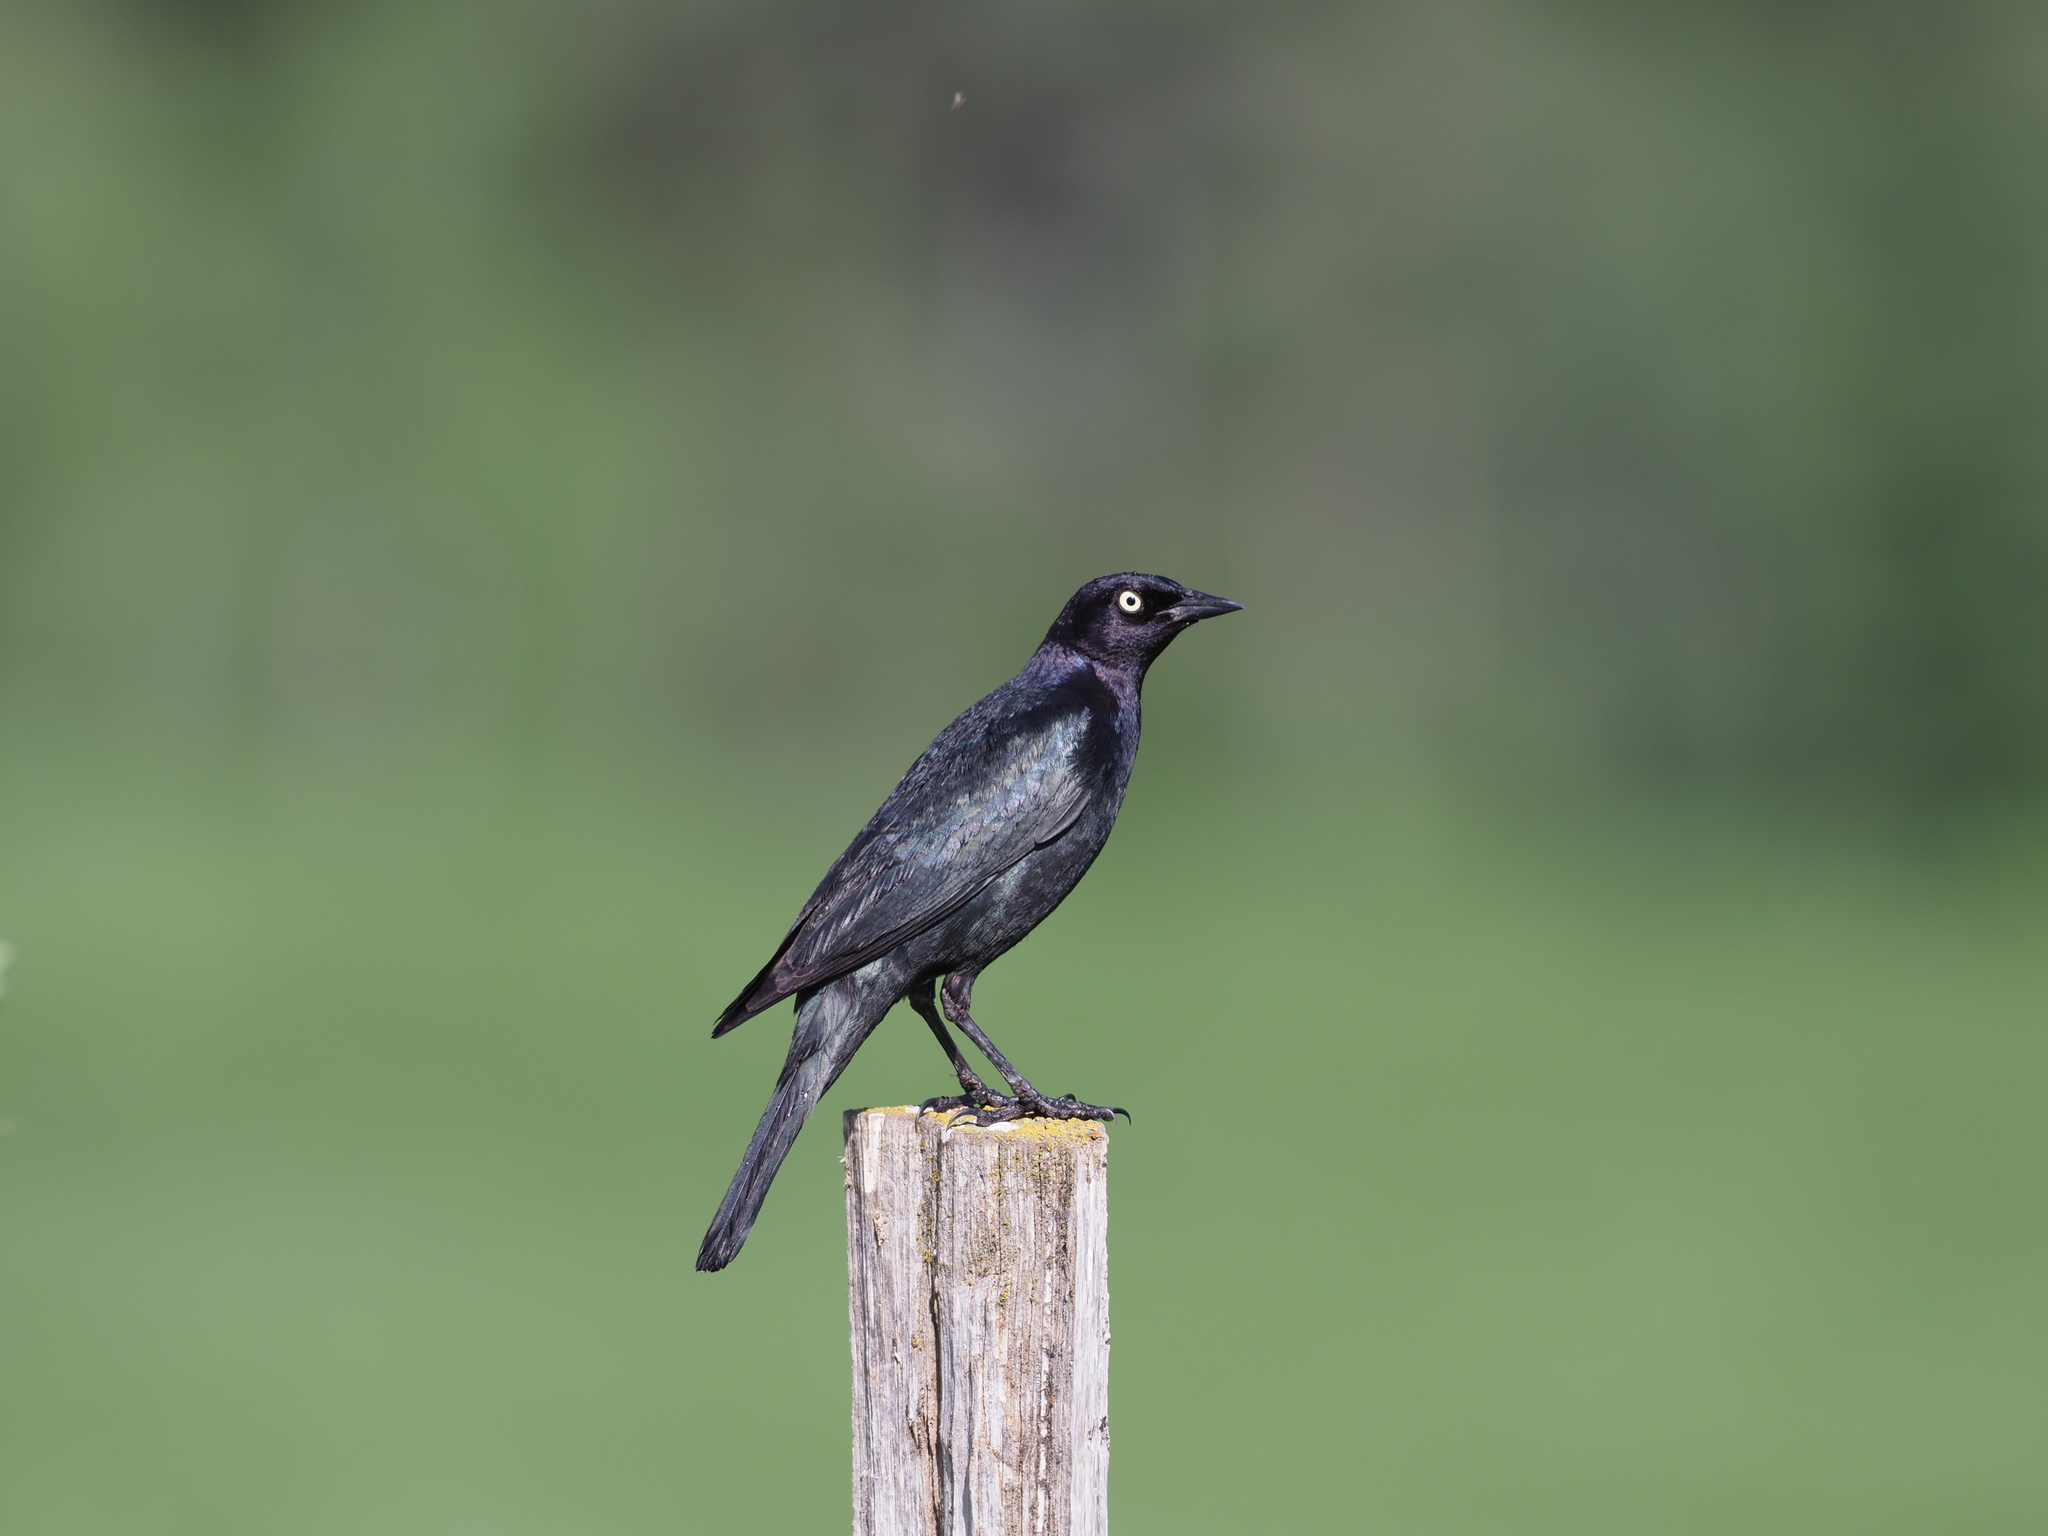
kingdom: Animalia
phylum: Chordata
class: Aves
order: Passeriformes
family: Icteridae
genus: Euphagus
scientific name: Euphagus cyanocephalus
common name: Brewer's blackbird
